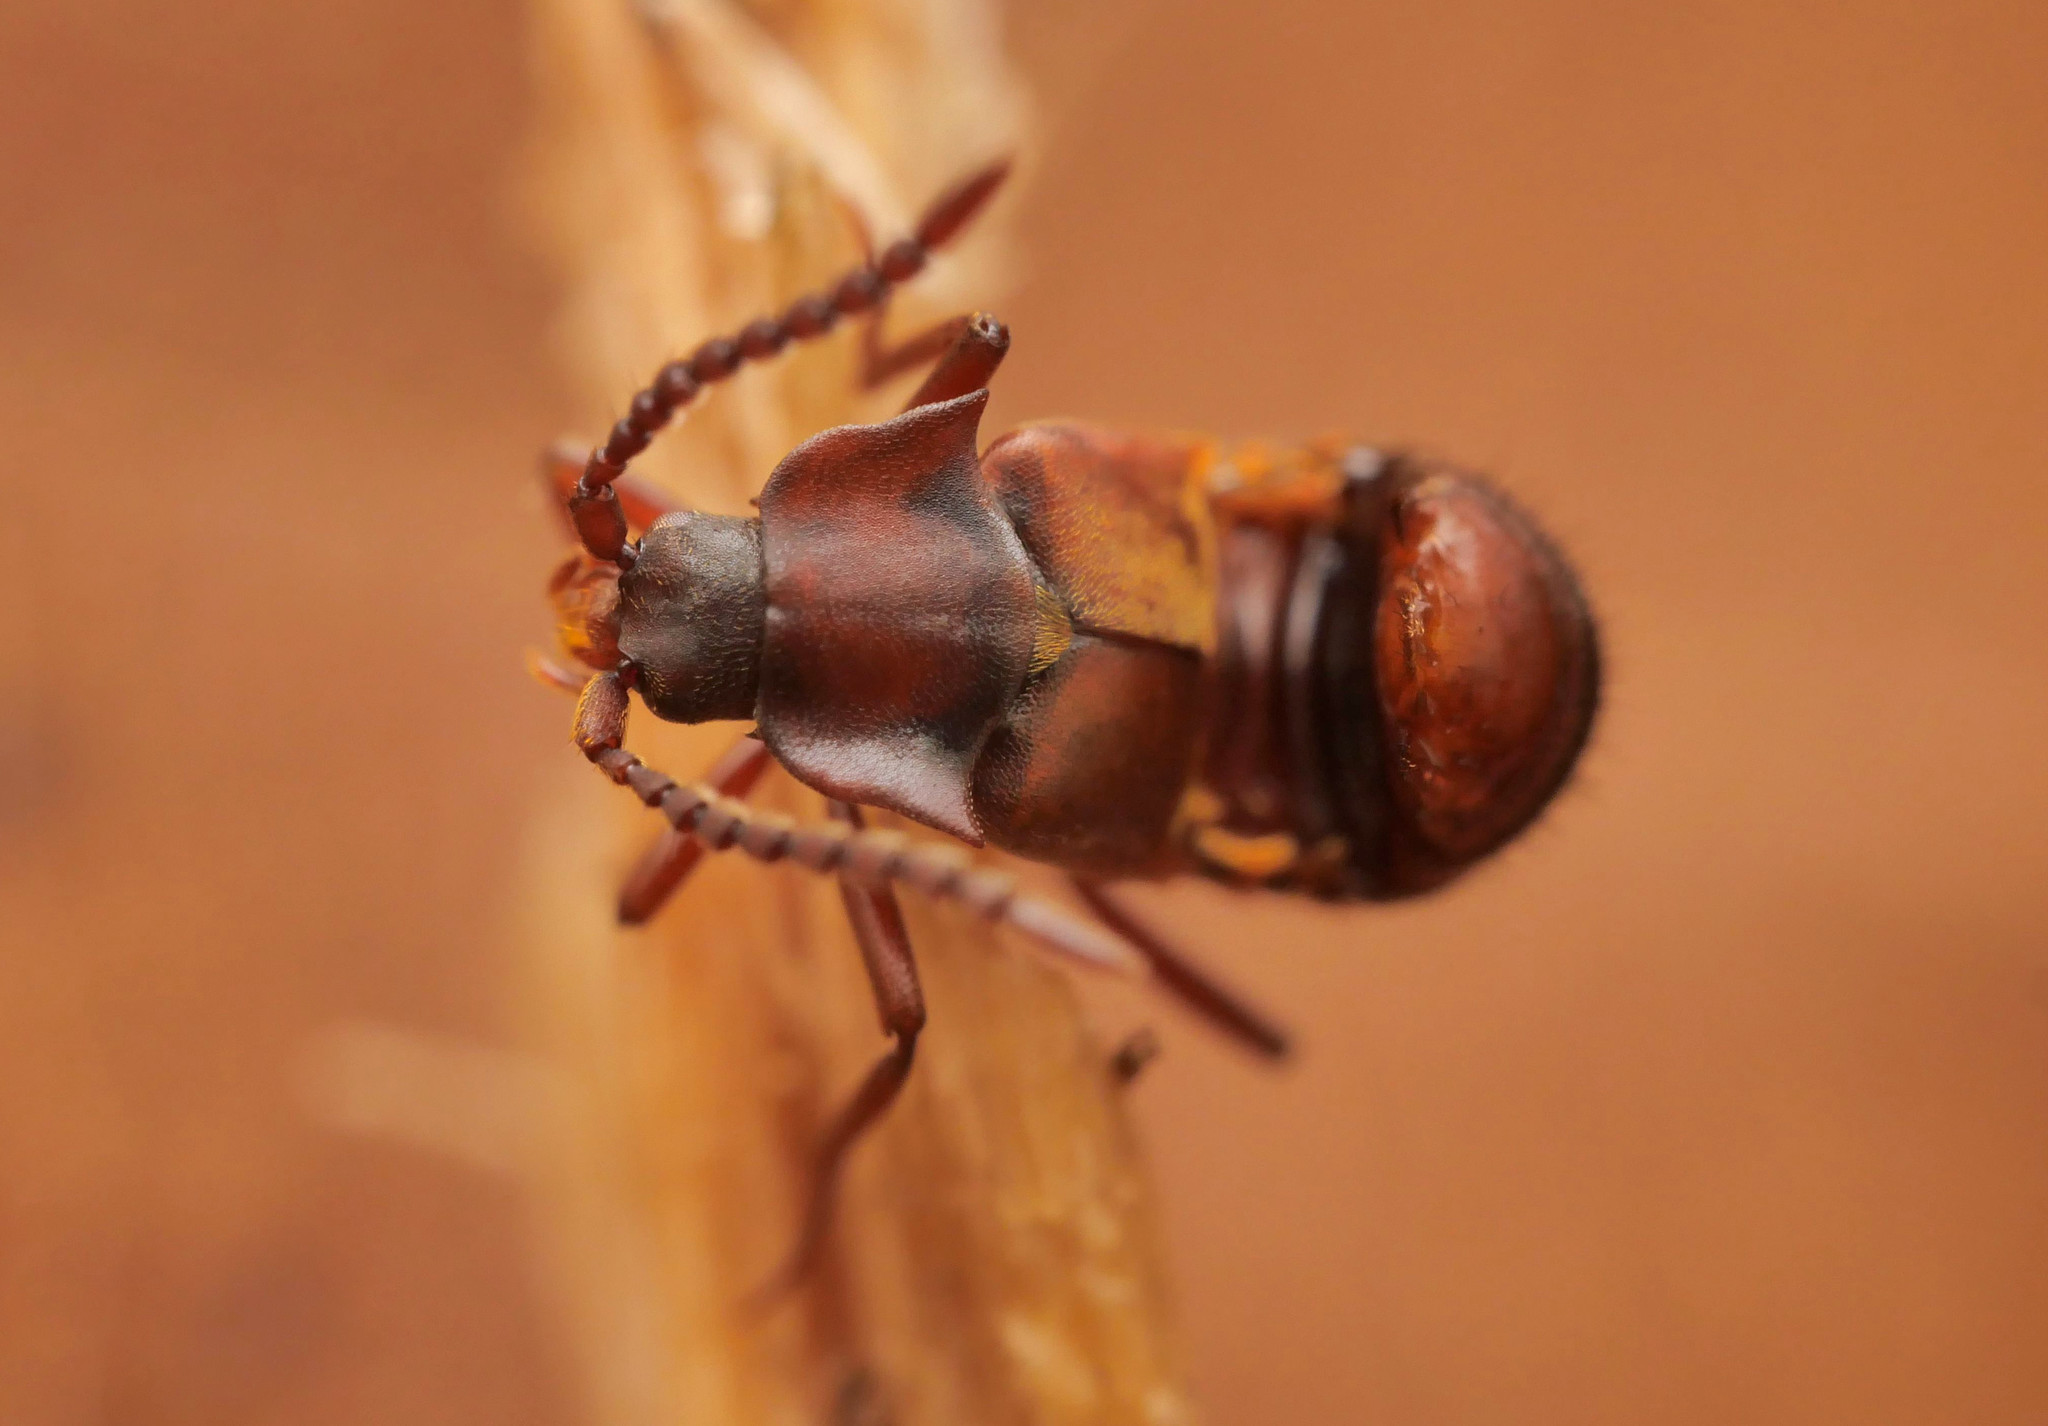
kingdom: Animalia
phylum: Arthropoda
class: Insecta
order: Coleoptera
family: Staphylinidae
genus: Lomechusa
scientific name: Lomechusa emarginata
